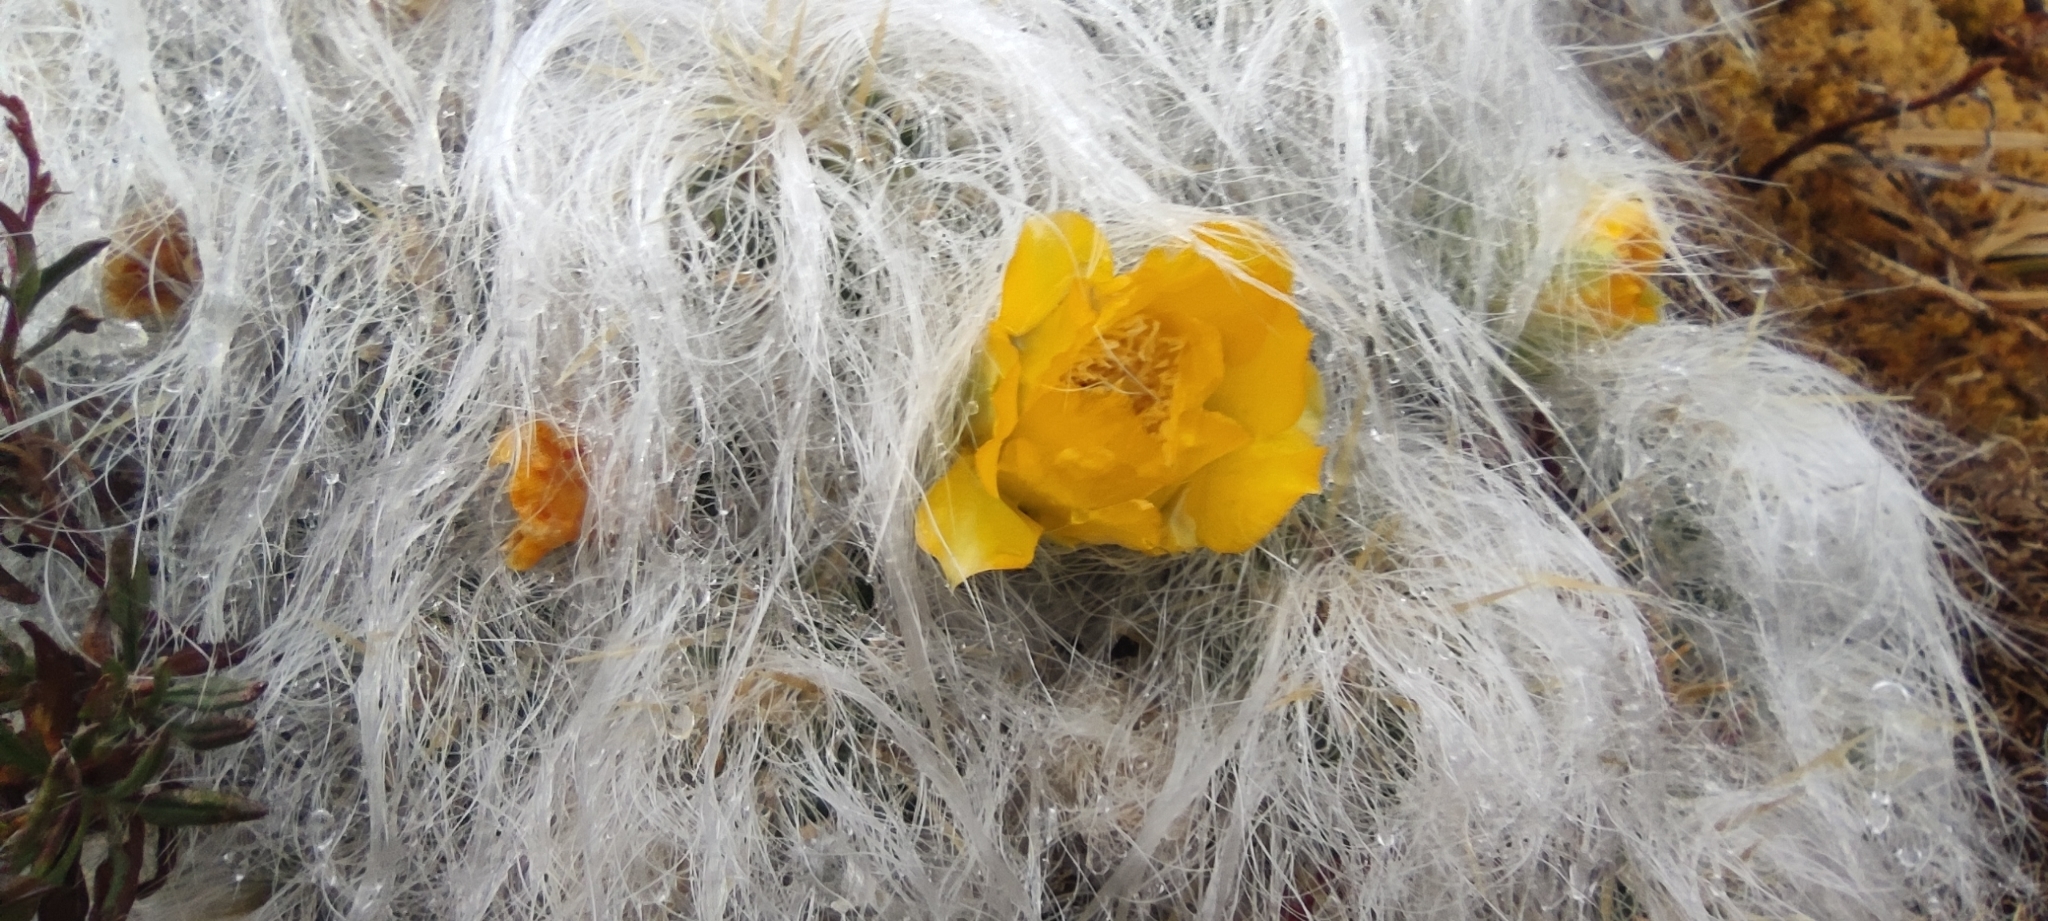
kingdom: Plantae
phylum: Tracheophyta
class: Magnoliopsida
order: Caryophyllales
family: Cactaceae
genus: Austrocylindropuntia
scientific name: Austrocylindropuntia floccosa
